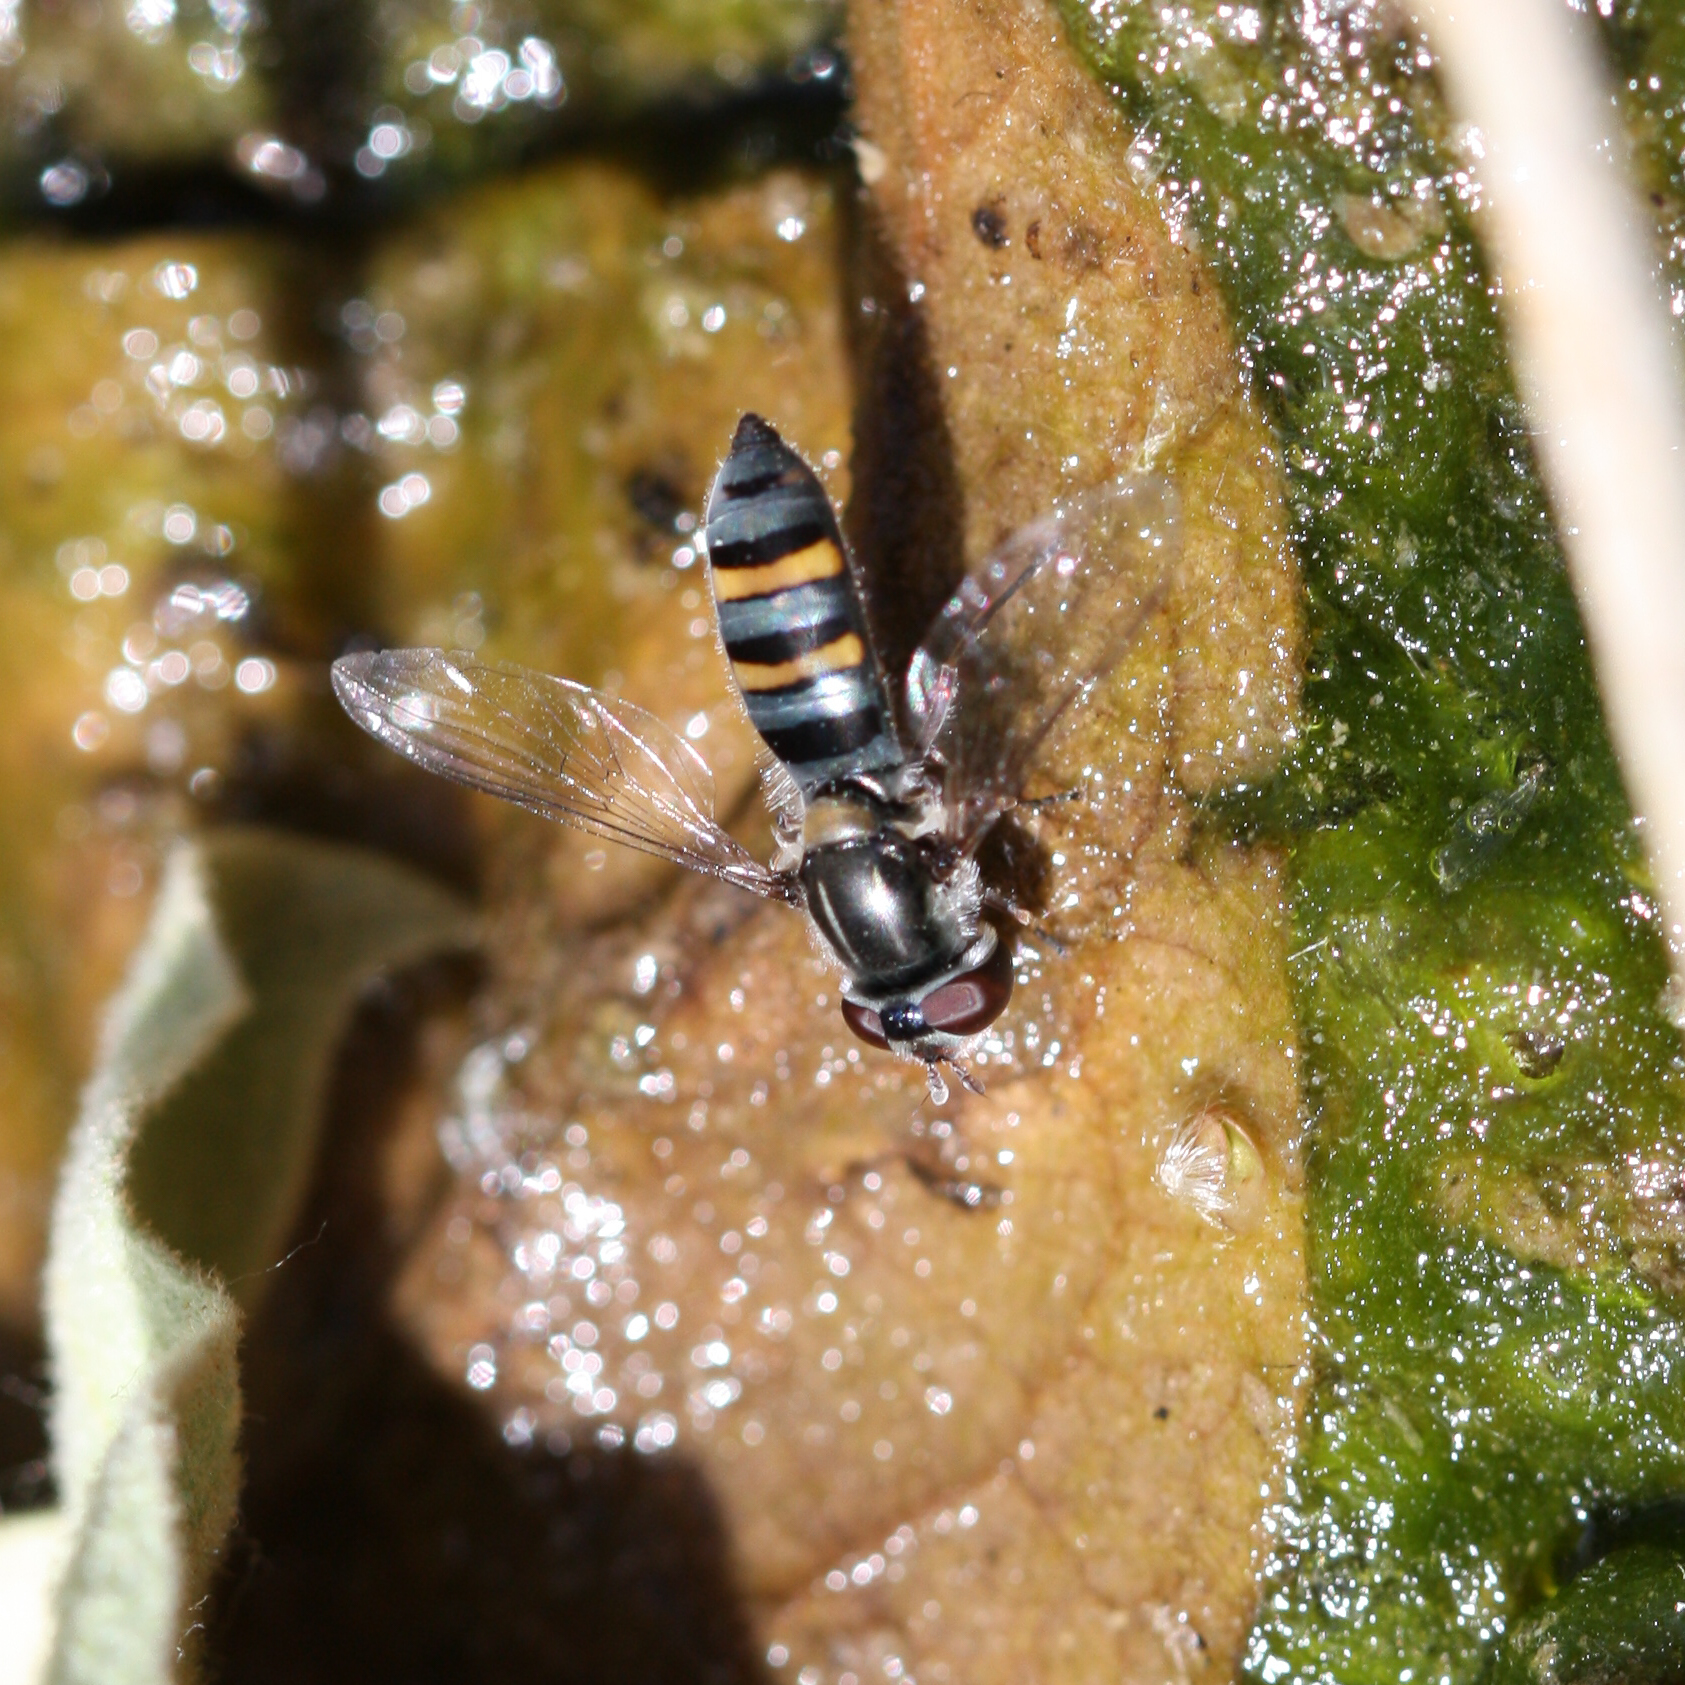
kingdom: Animalia
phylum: Arthropoda
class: Insecta
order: Diptera
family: Syrphidae
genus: Pseudoscaeva
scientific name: Pseudoscaeva diversifasciata
